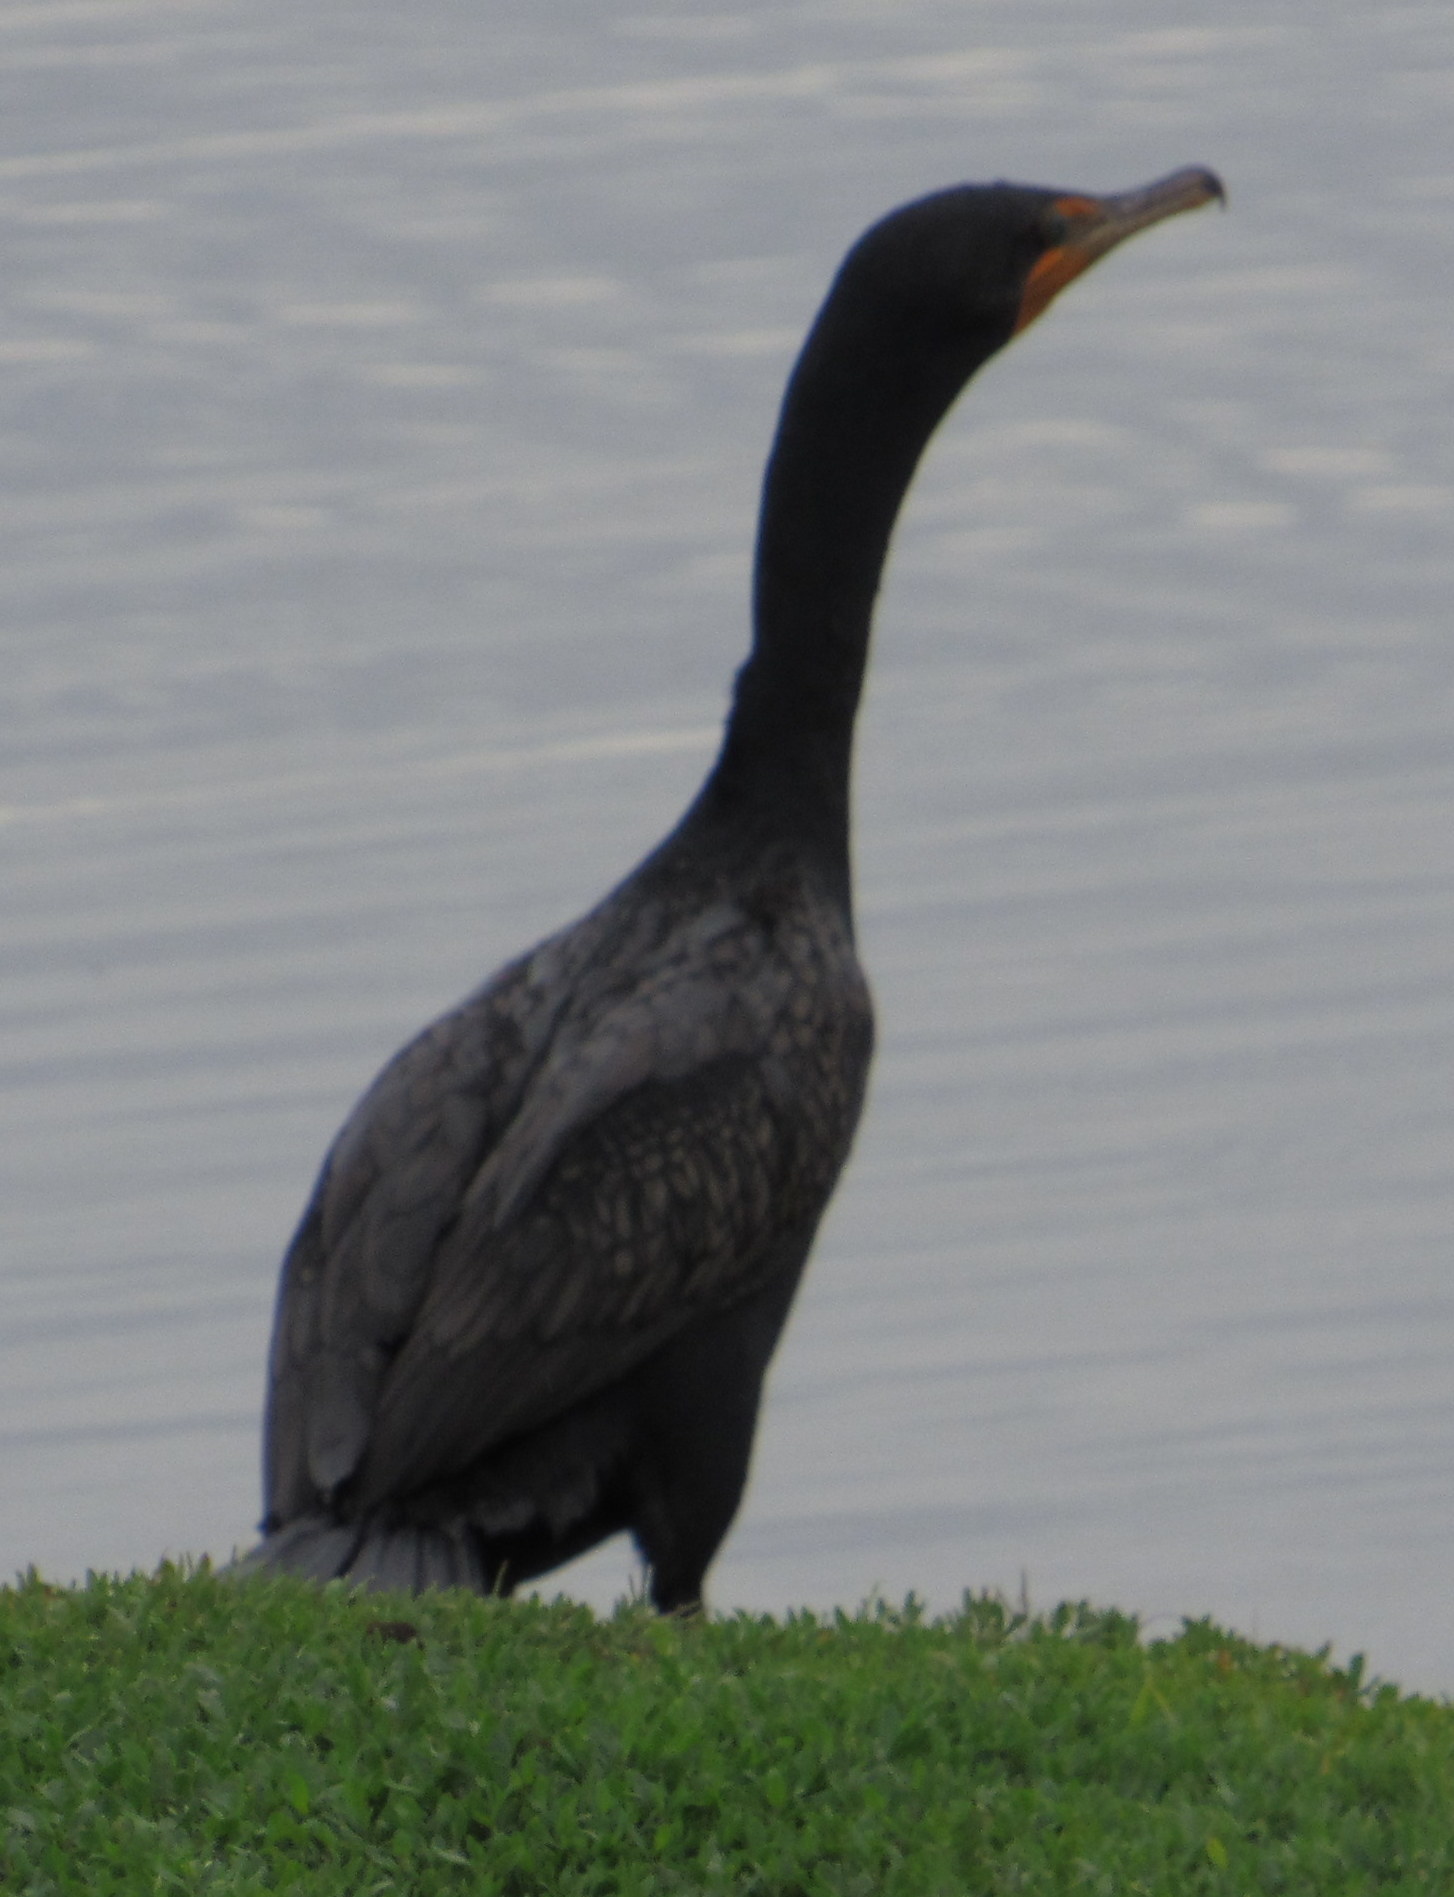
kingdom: Animalia
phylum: Chordata
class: Aves
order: Suliformes
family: Phalacrocoracidae
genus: Phalacrocorax
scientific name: Phalacrocorax auritus
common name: Double-crested cormorant
